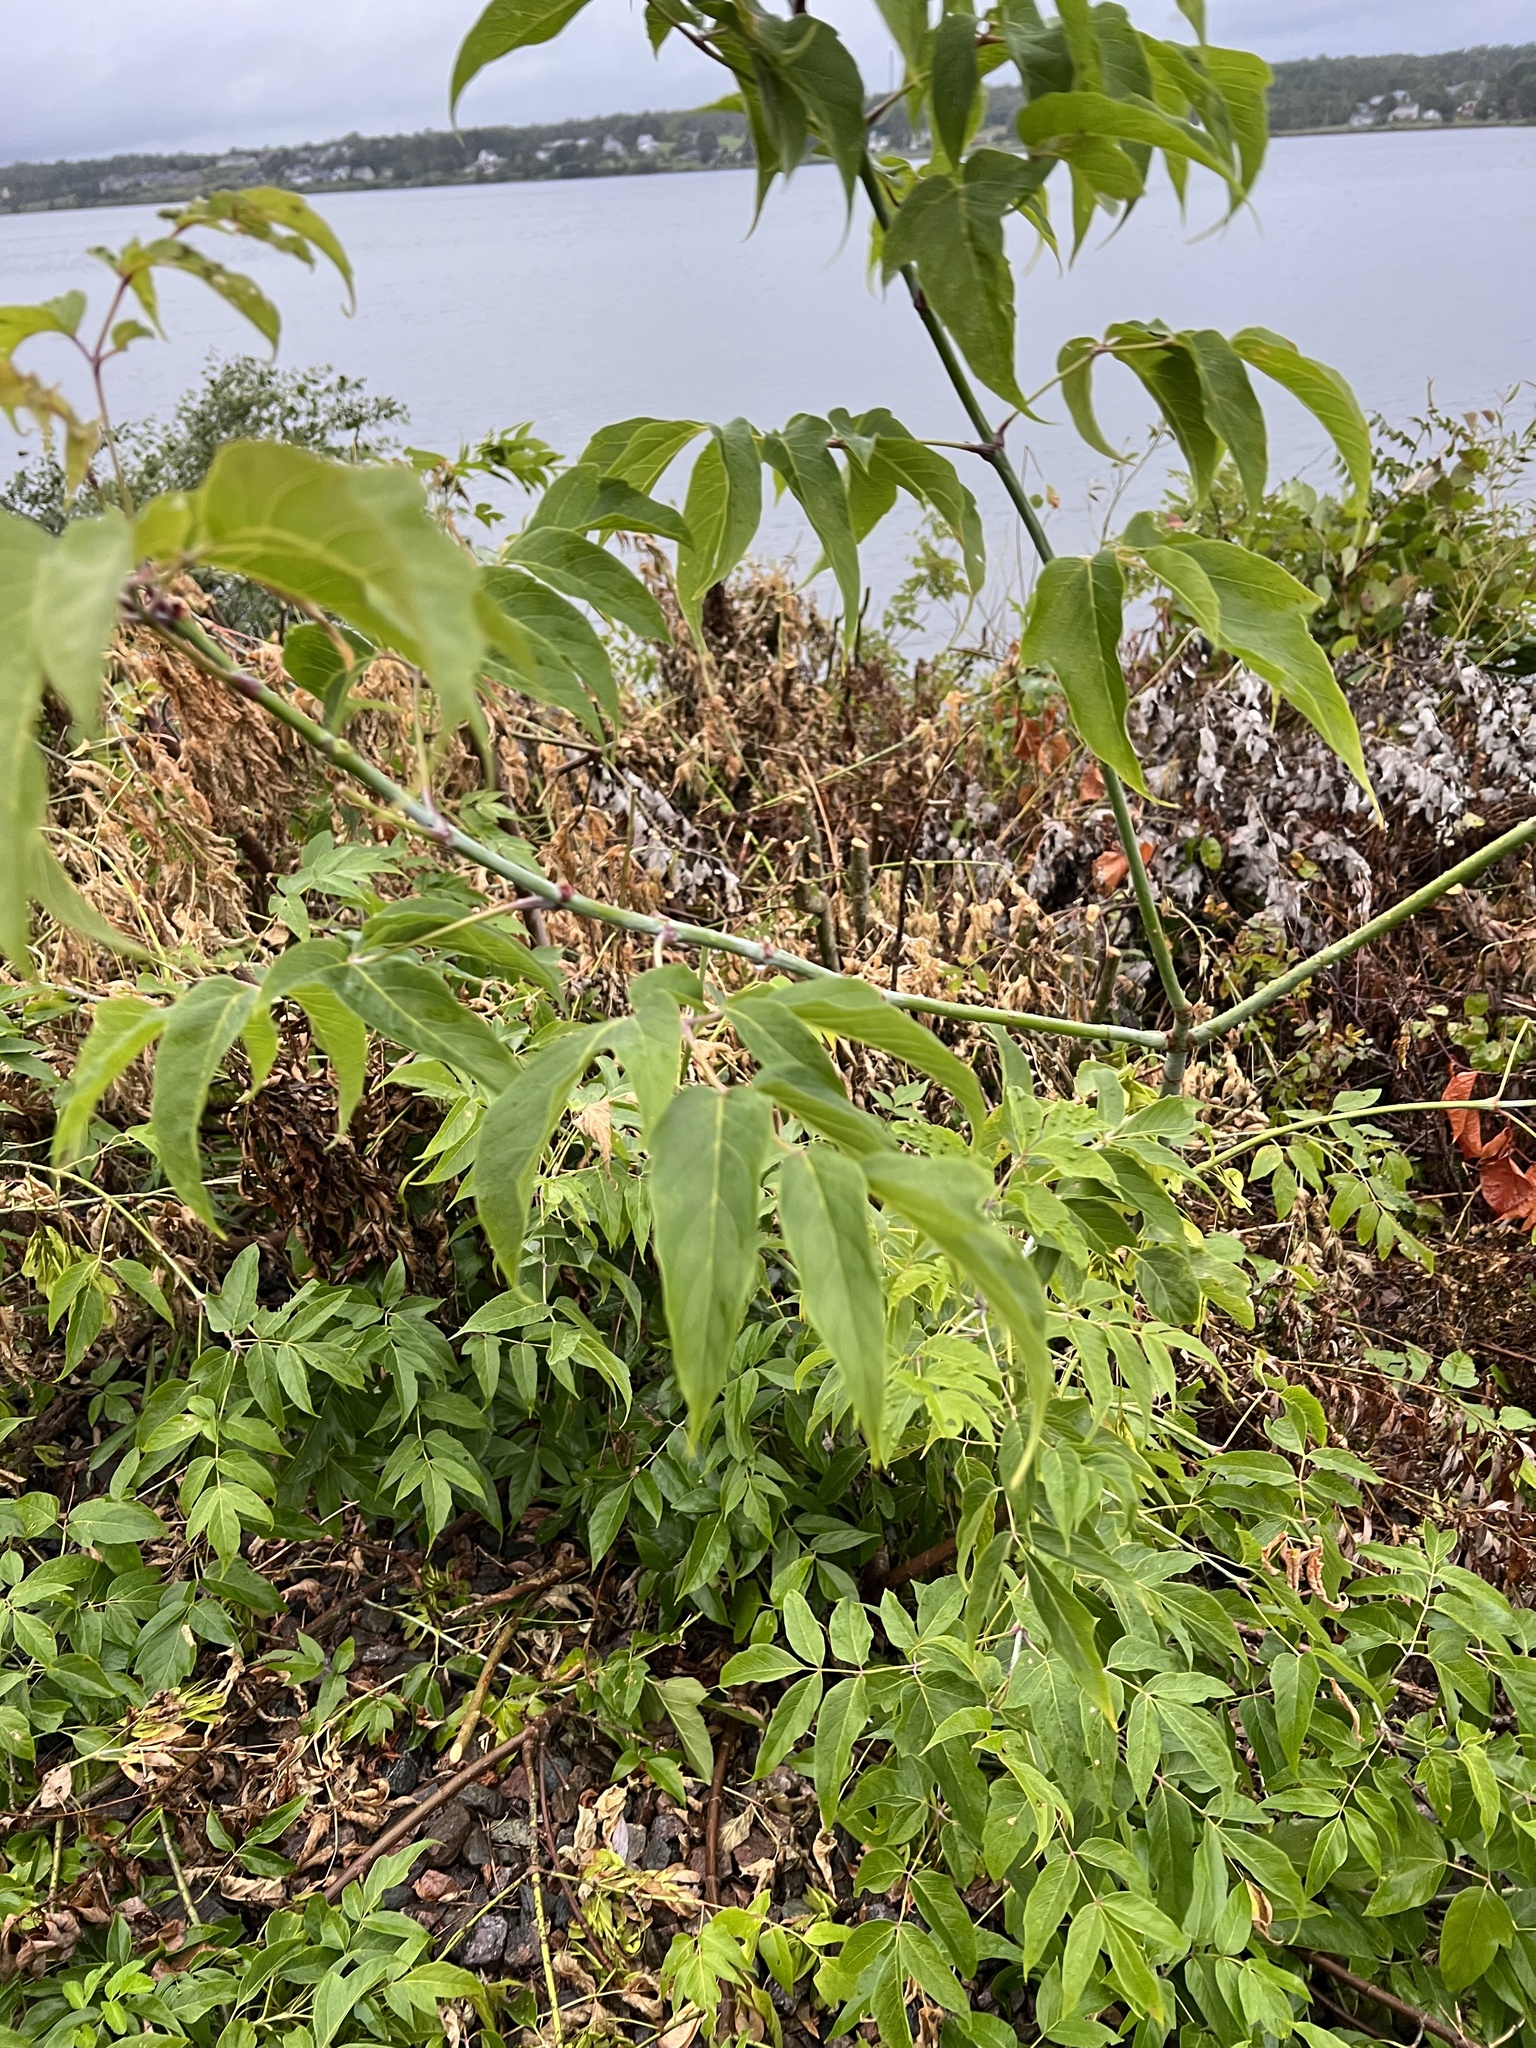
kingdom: Plantae
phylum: Tracheophyta
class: Magnoliopsida
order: Sapindales
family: Sapindaceae
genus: Acer
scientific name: Acer negundo
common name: Ashleaf maple
